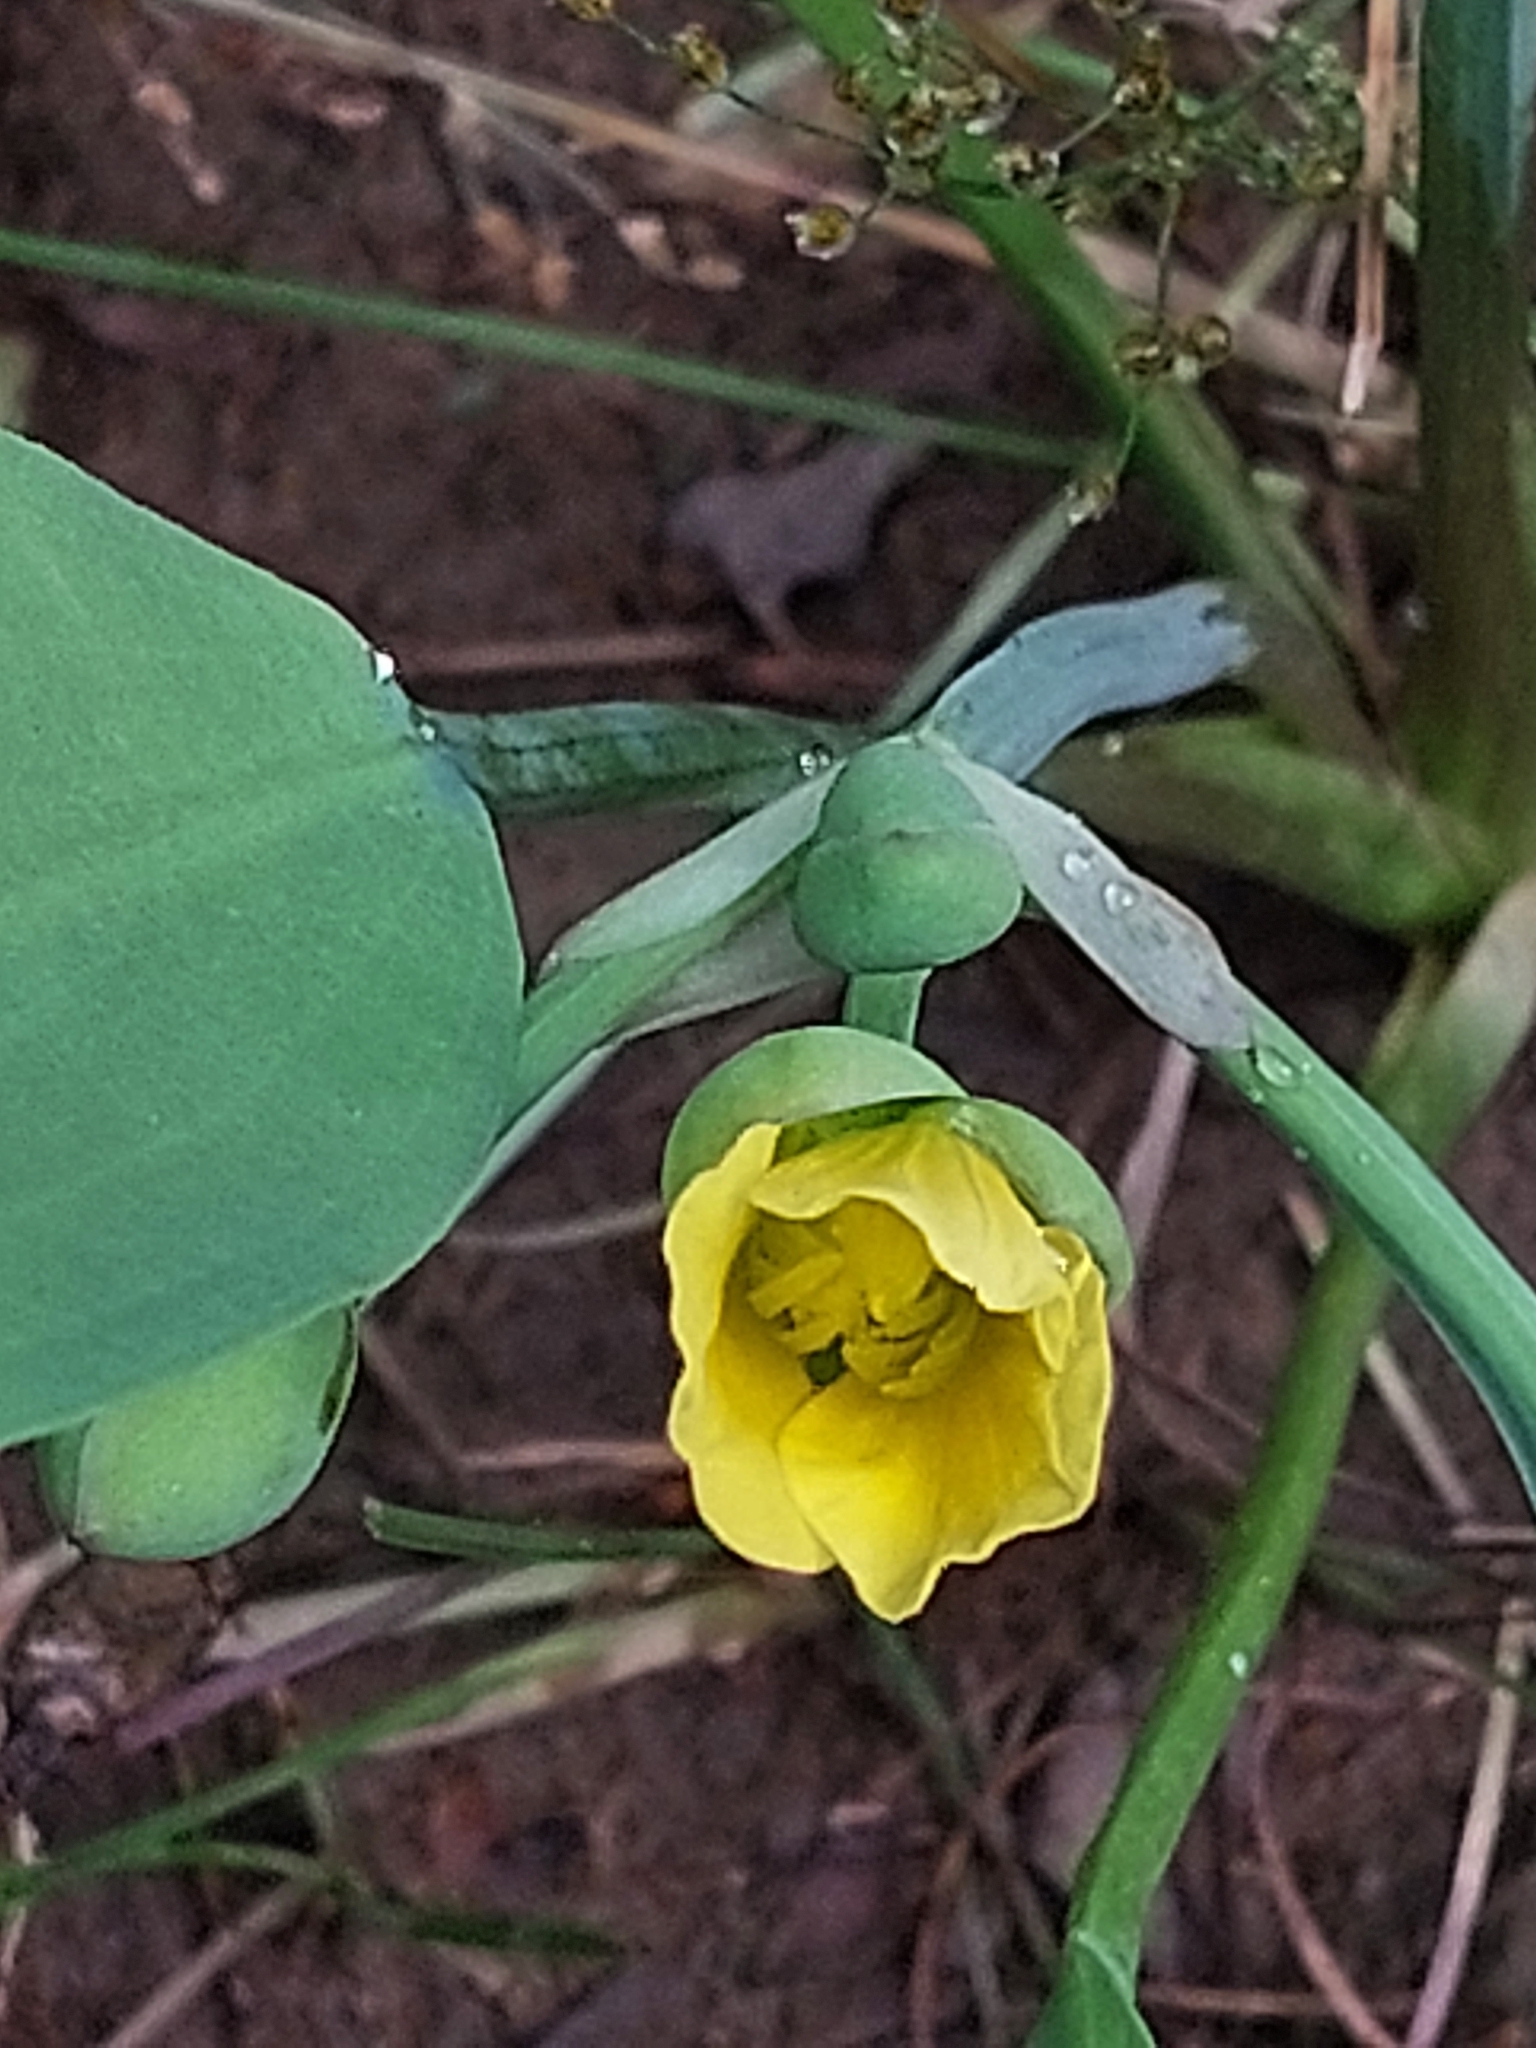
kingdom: Plantae
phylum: Tracheophyta
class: Liliopsida
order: Alismatales
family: Alismataceae
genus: Limnocharis
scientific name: Limnocharis laforestii
